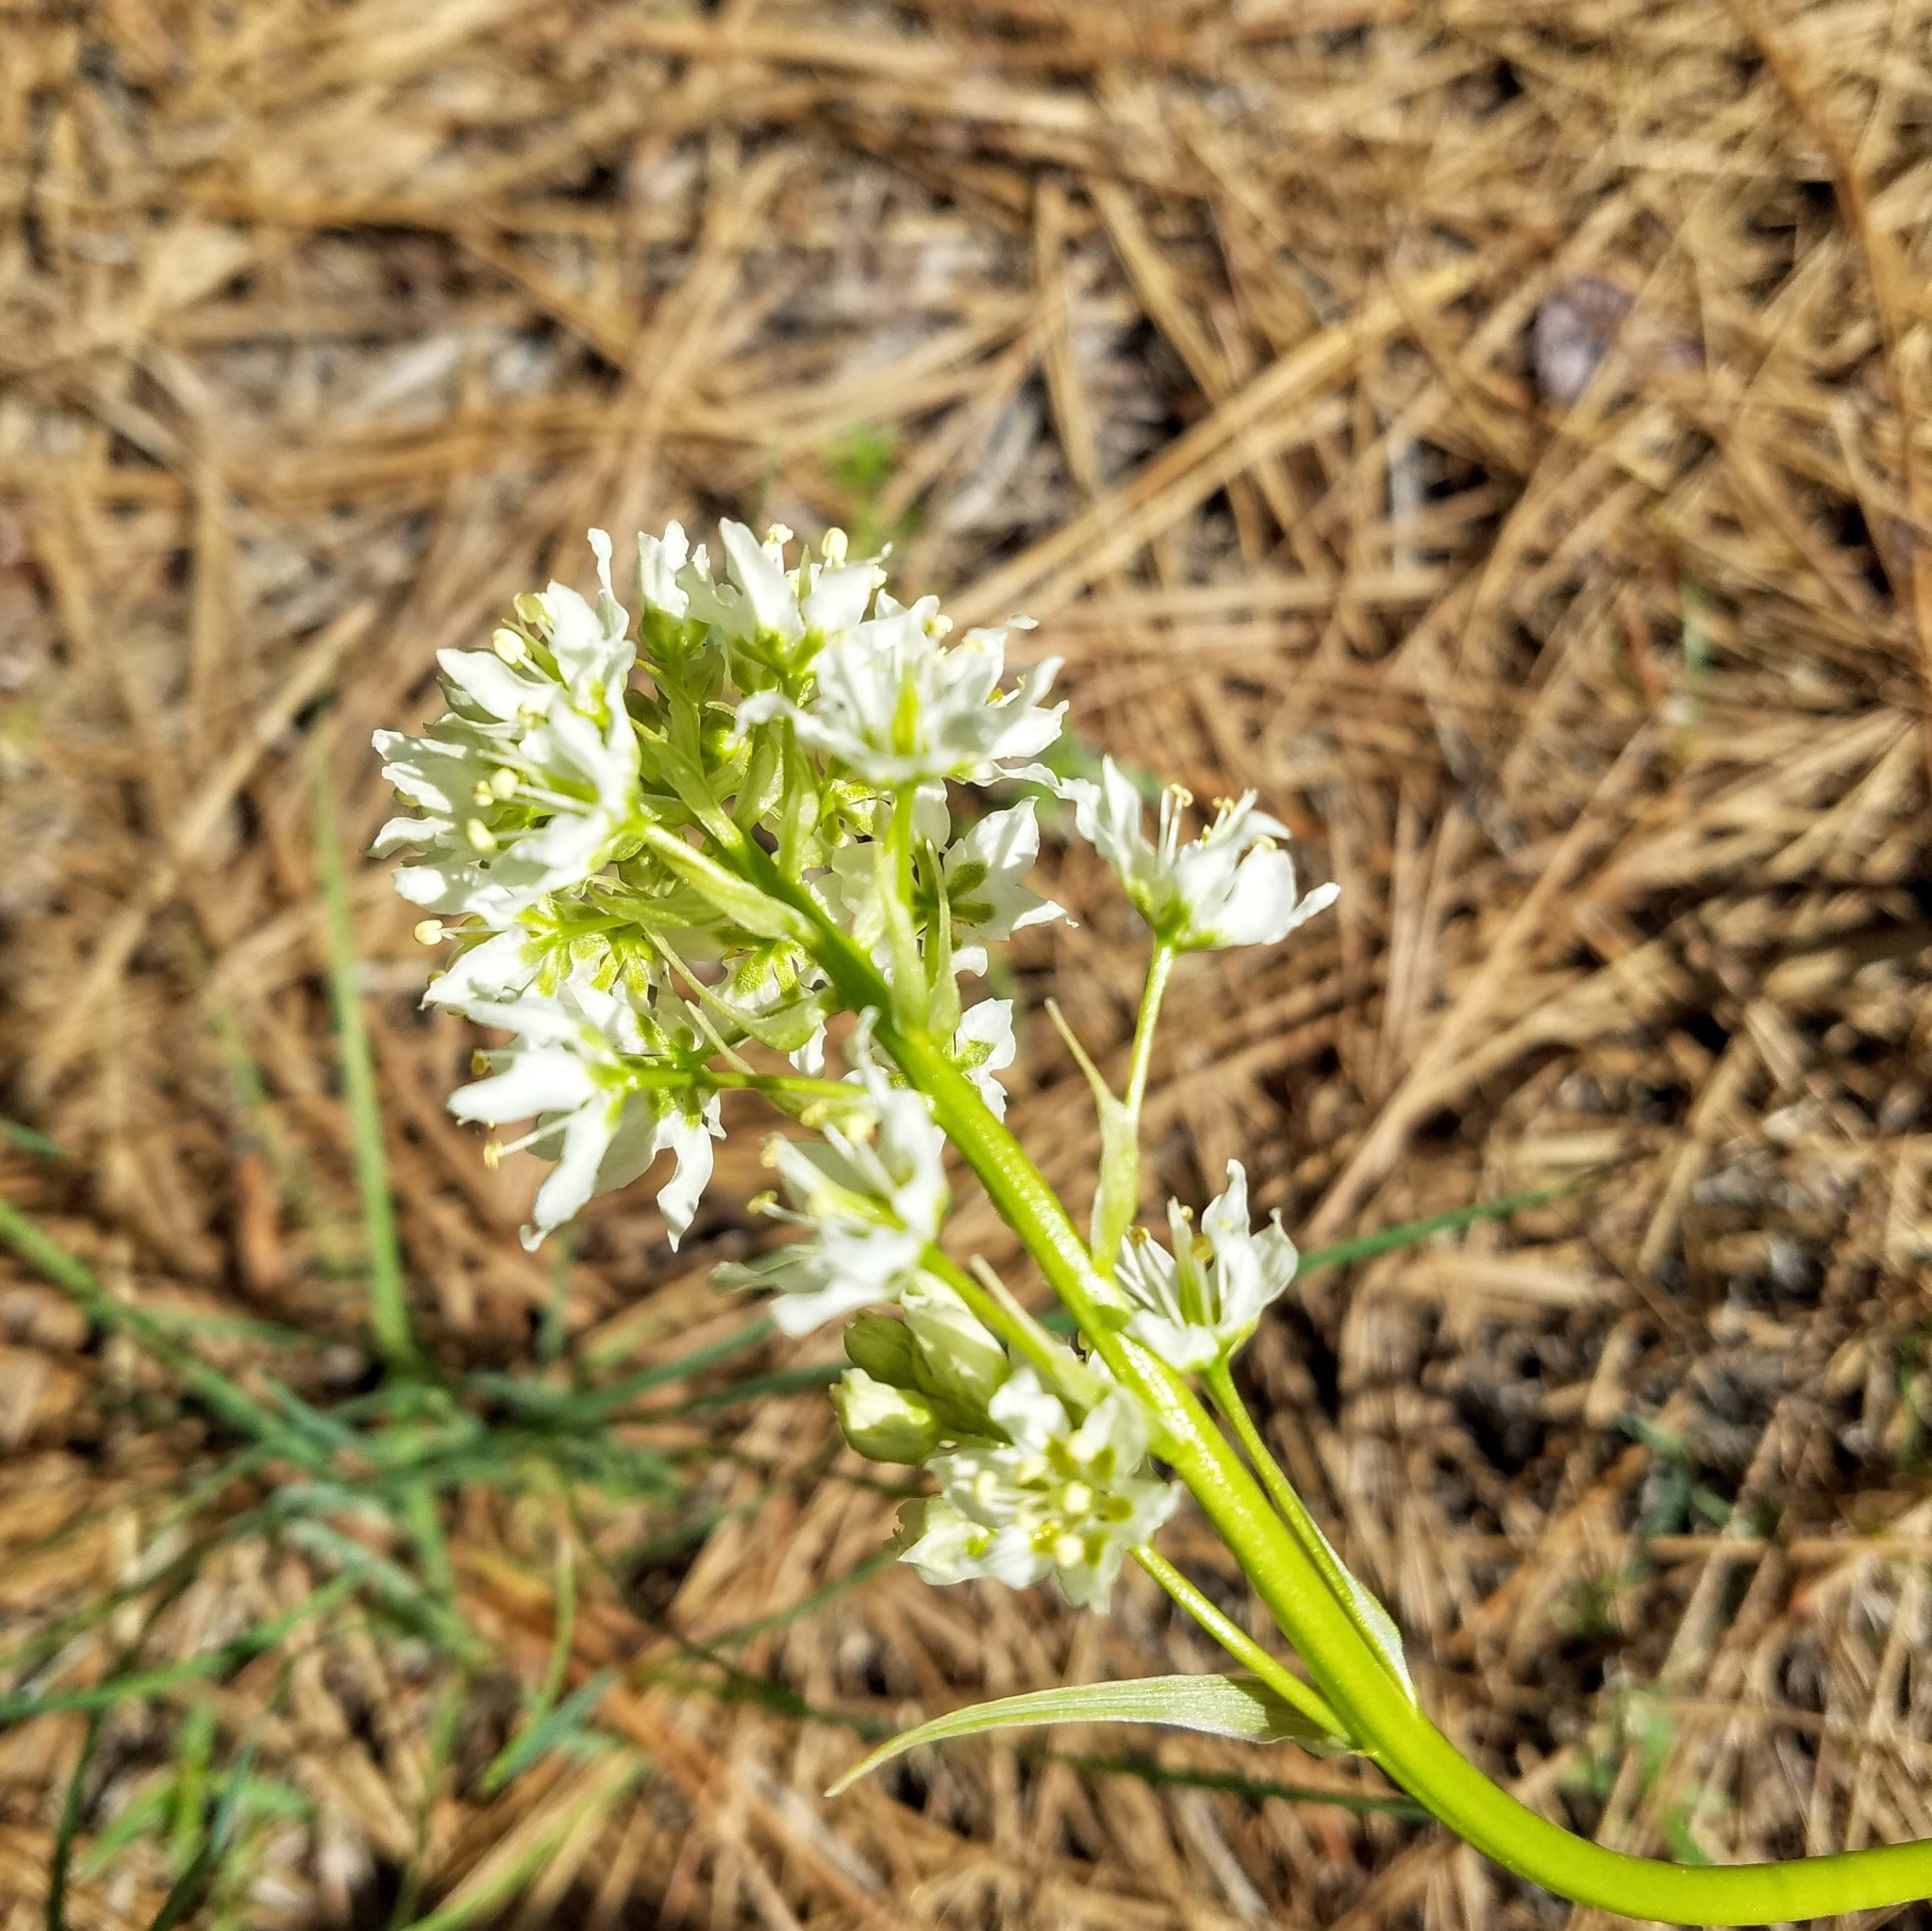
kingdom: Plantae
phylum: Tracheophyta
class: Liliopsida
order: Liliales
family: Melanthiaceae
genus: Toxicoscordion
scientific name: Toxicoscordion venenosum
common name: Meadow death camas
